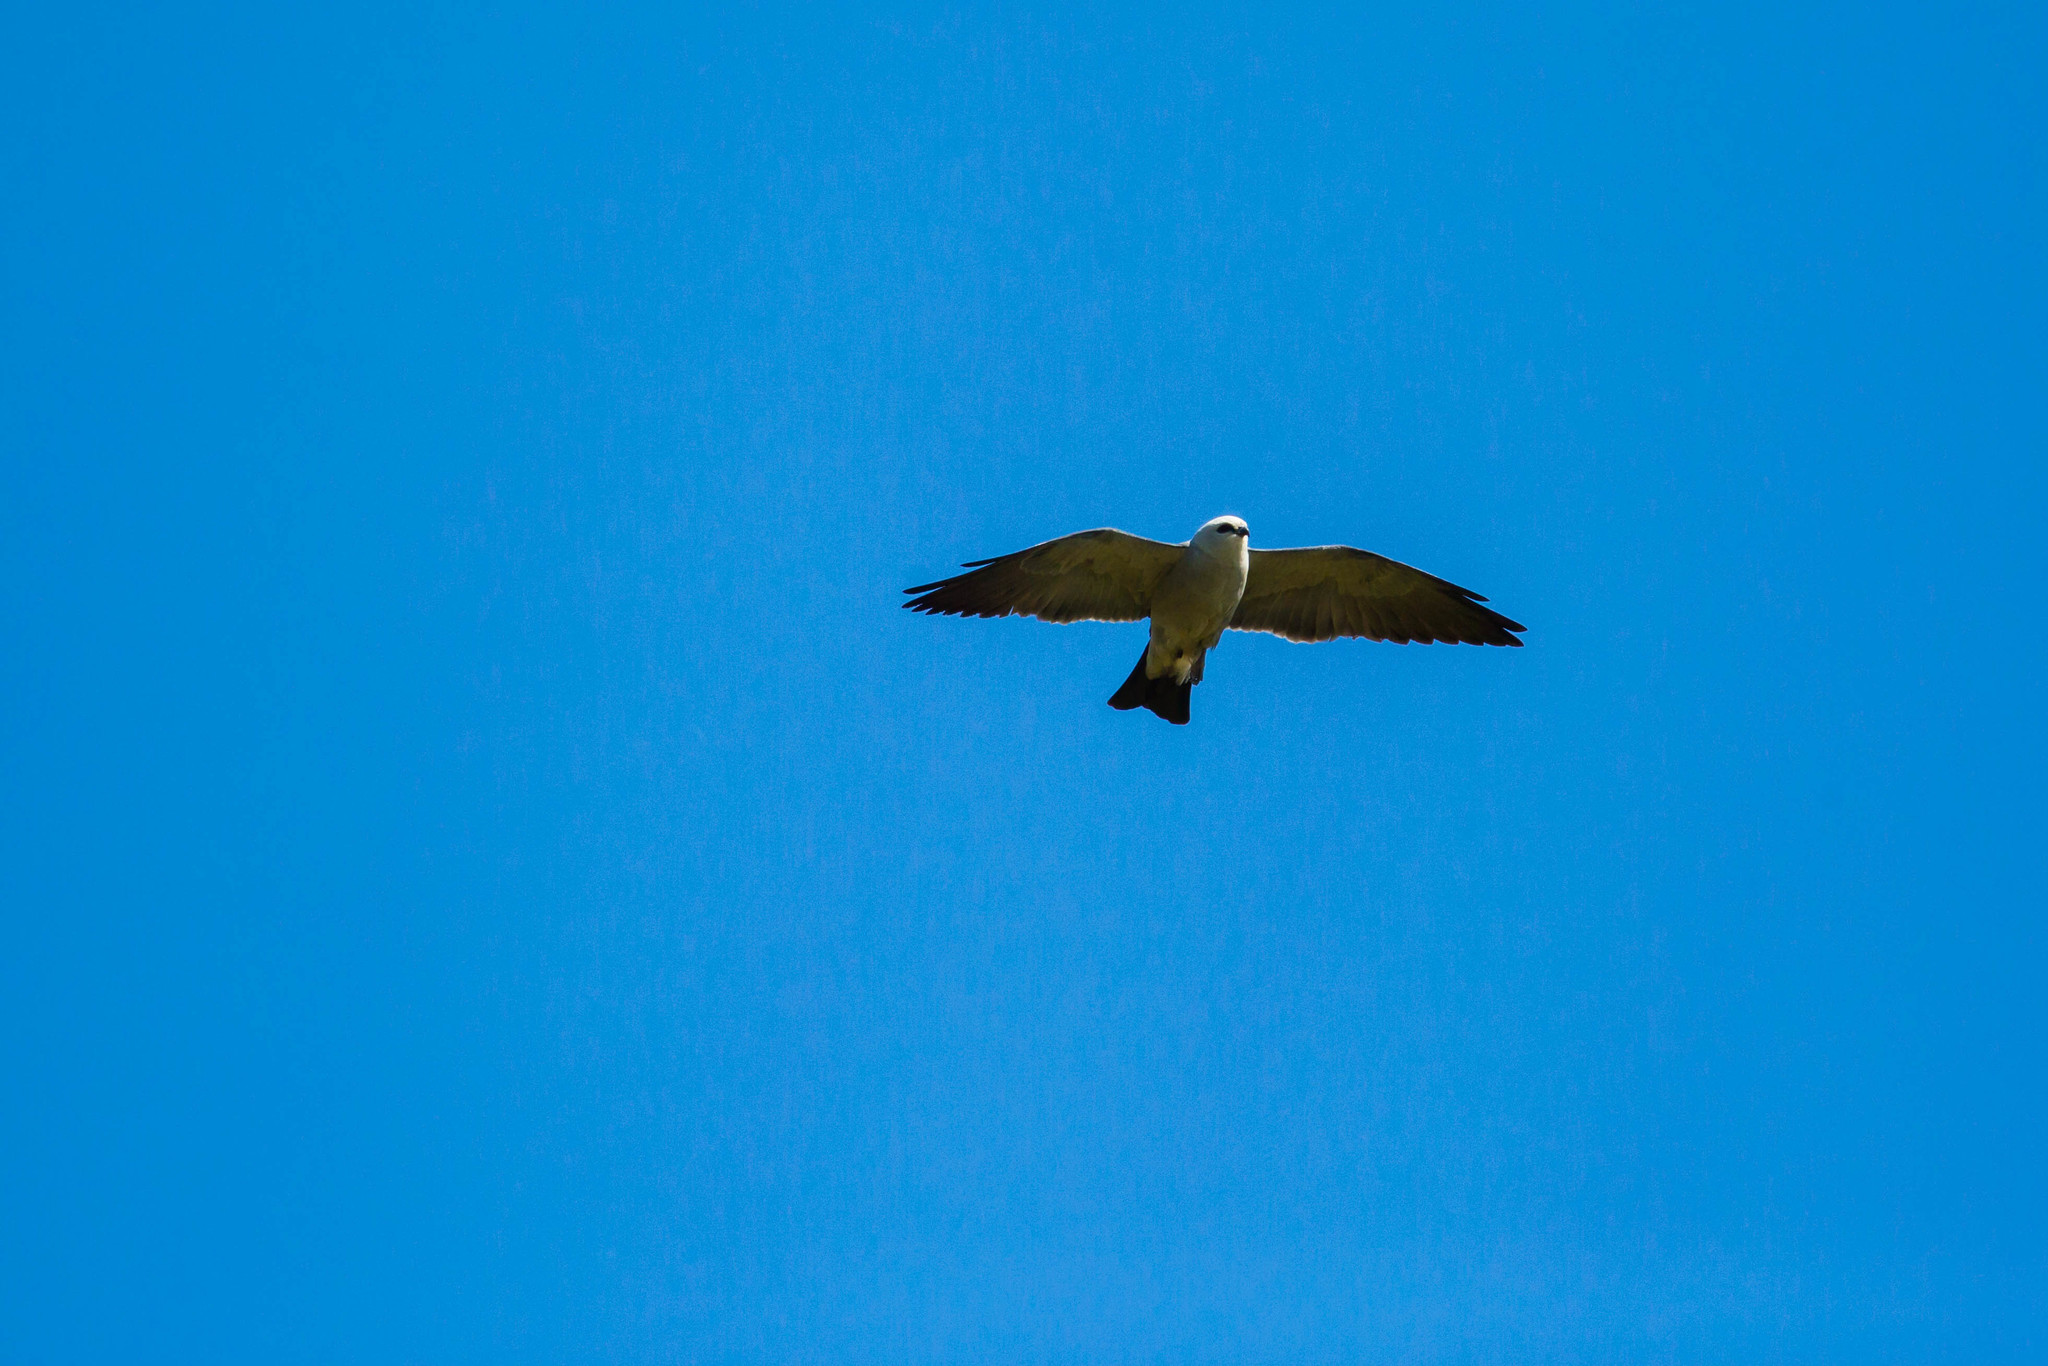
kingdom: Animalia
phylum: Chordata
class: Aves
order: Accipitriformes
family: Accipitridae
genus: Ictinia
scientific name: Ictinia mississippiensis
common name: Mississippi kite
